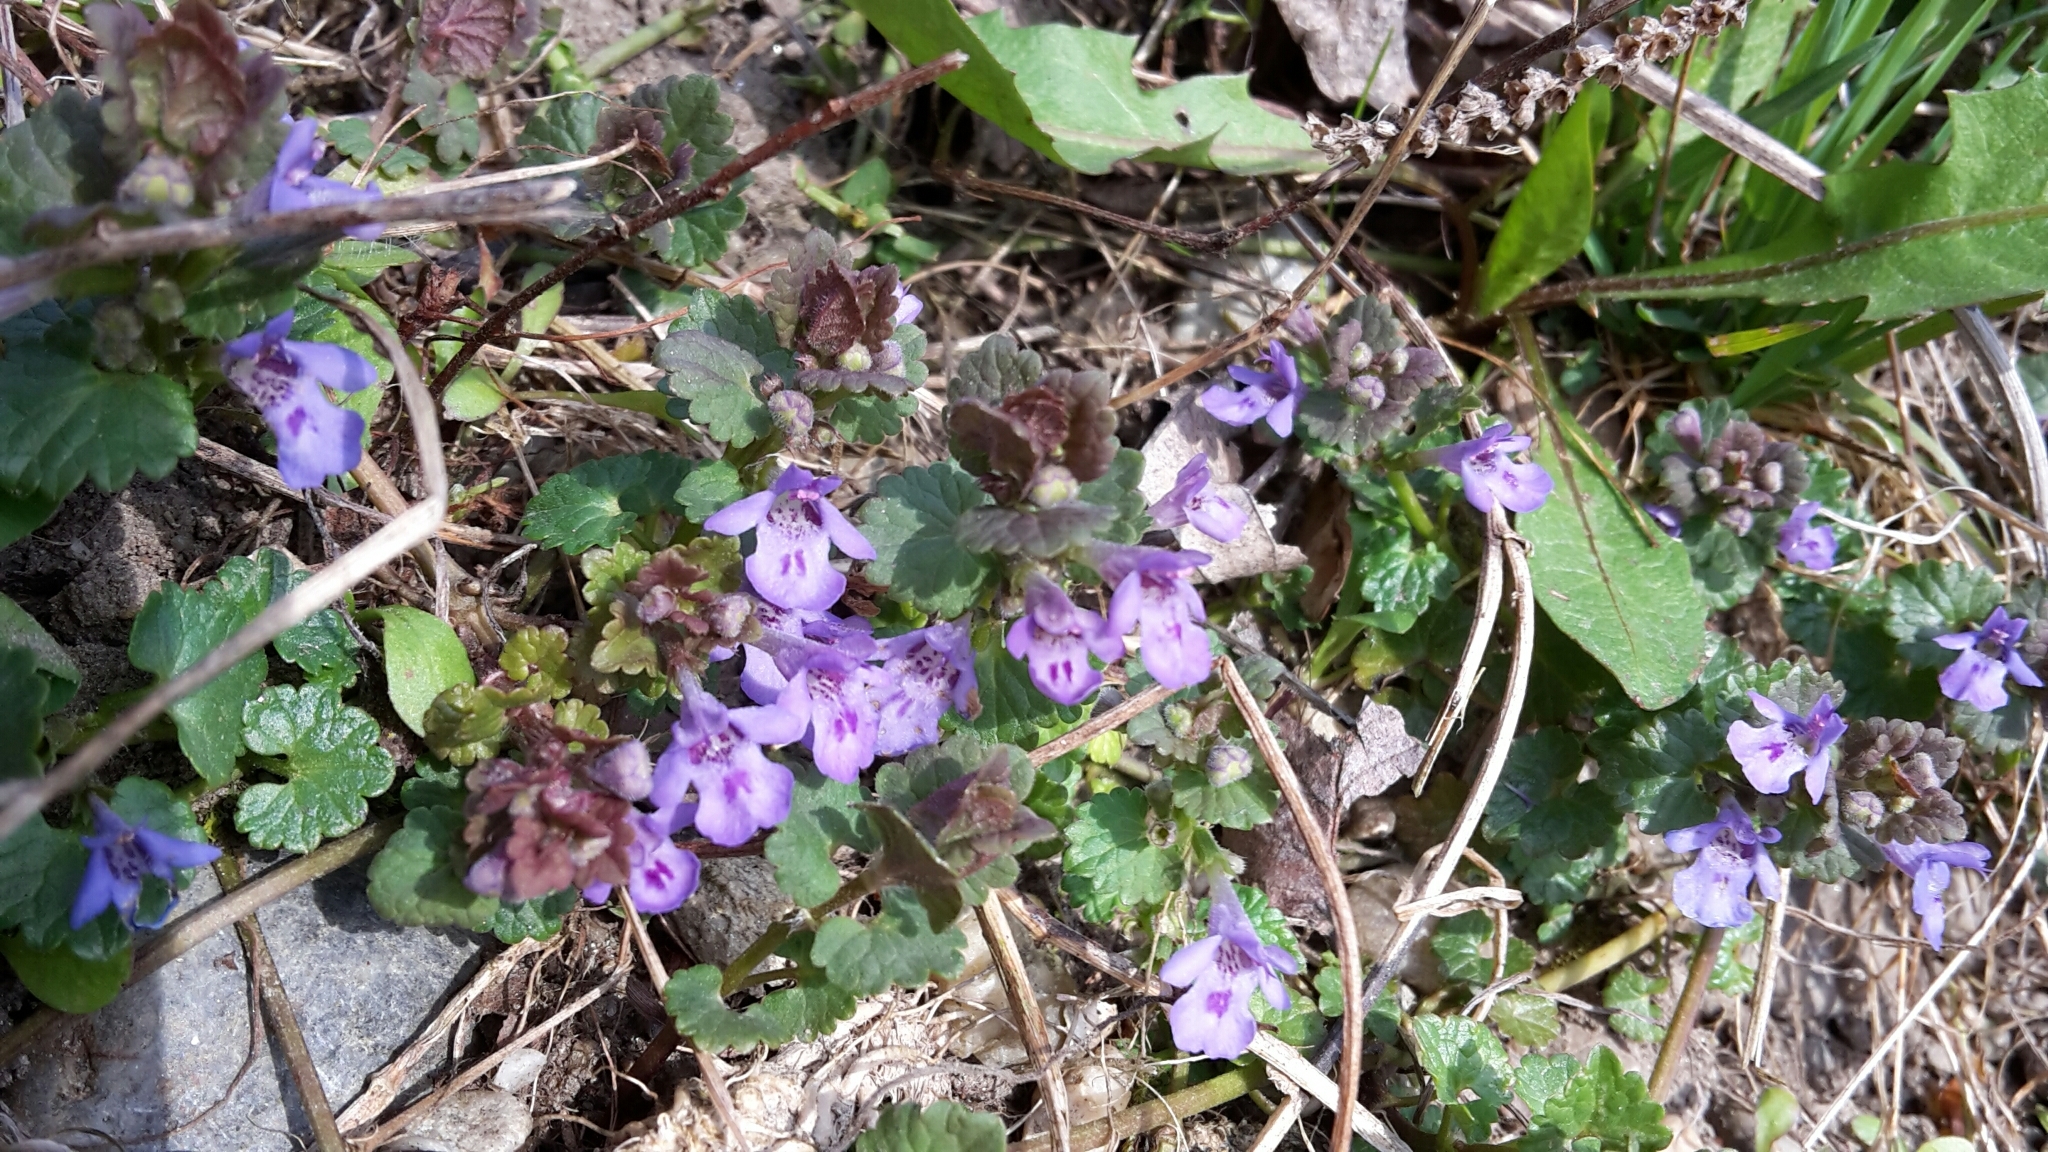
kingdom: Plantae
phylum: Tracheophyta
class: Magnoliopsida
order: Lamiales
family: Lamiaceae
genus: Glechoma
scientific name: Glechoma hederacea
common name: Ground ivy
